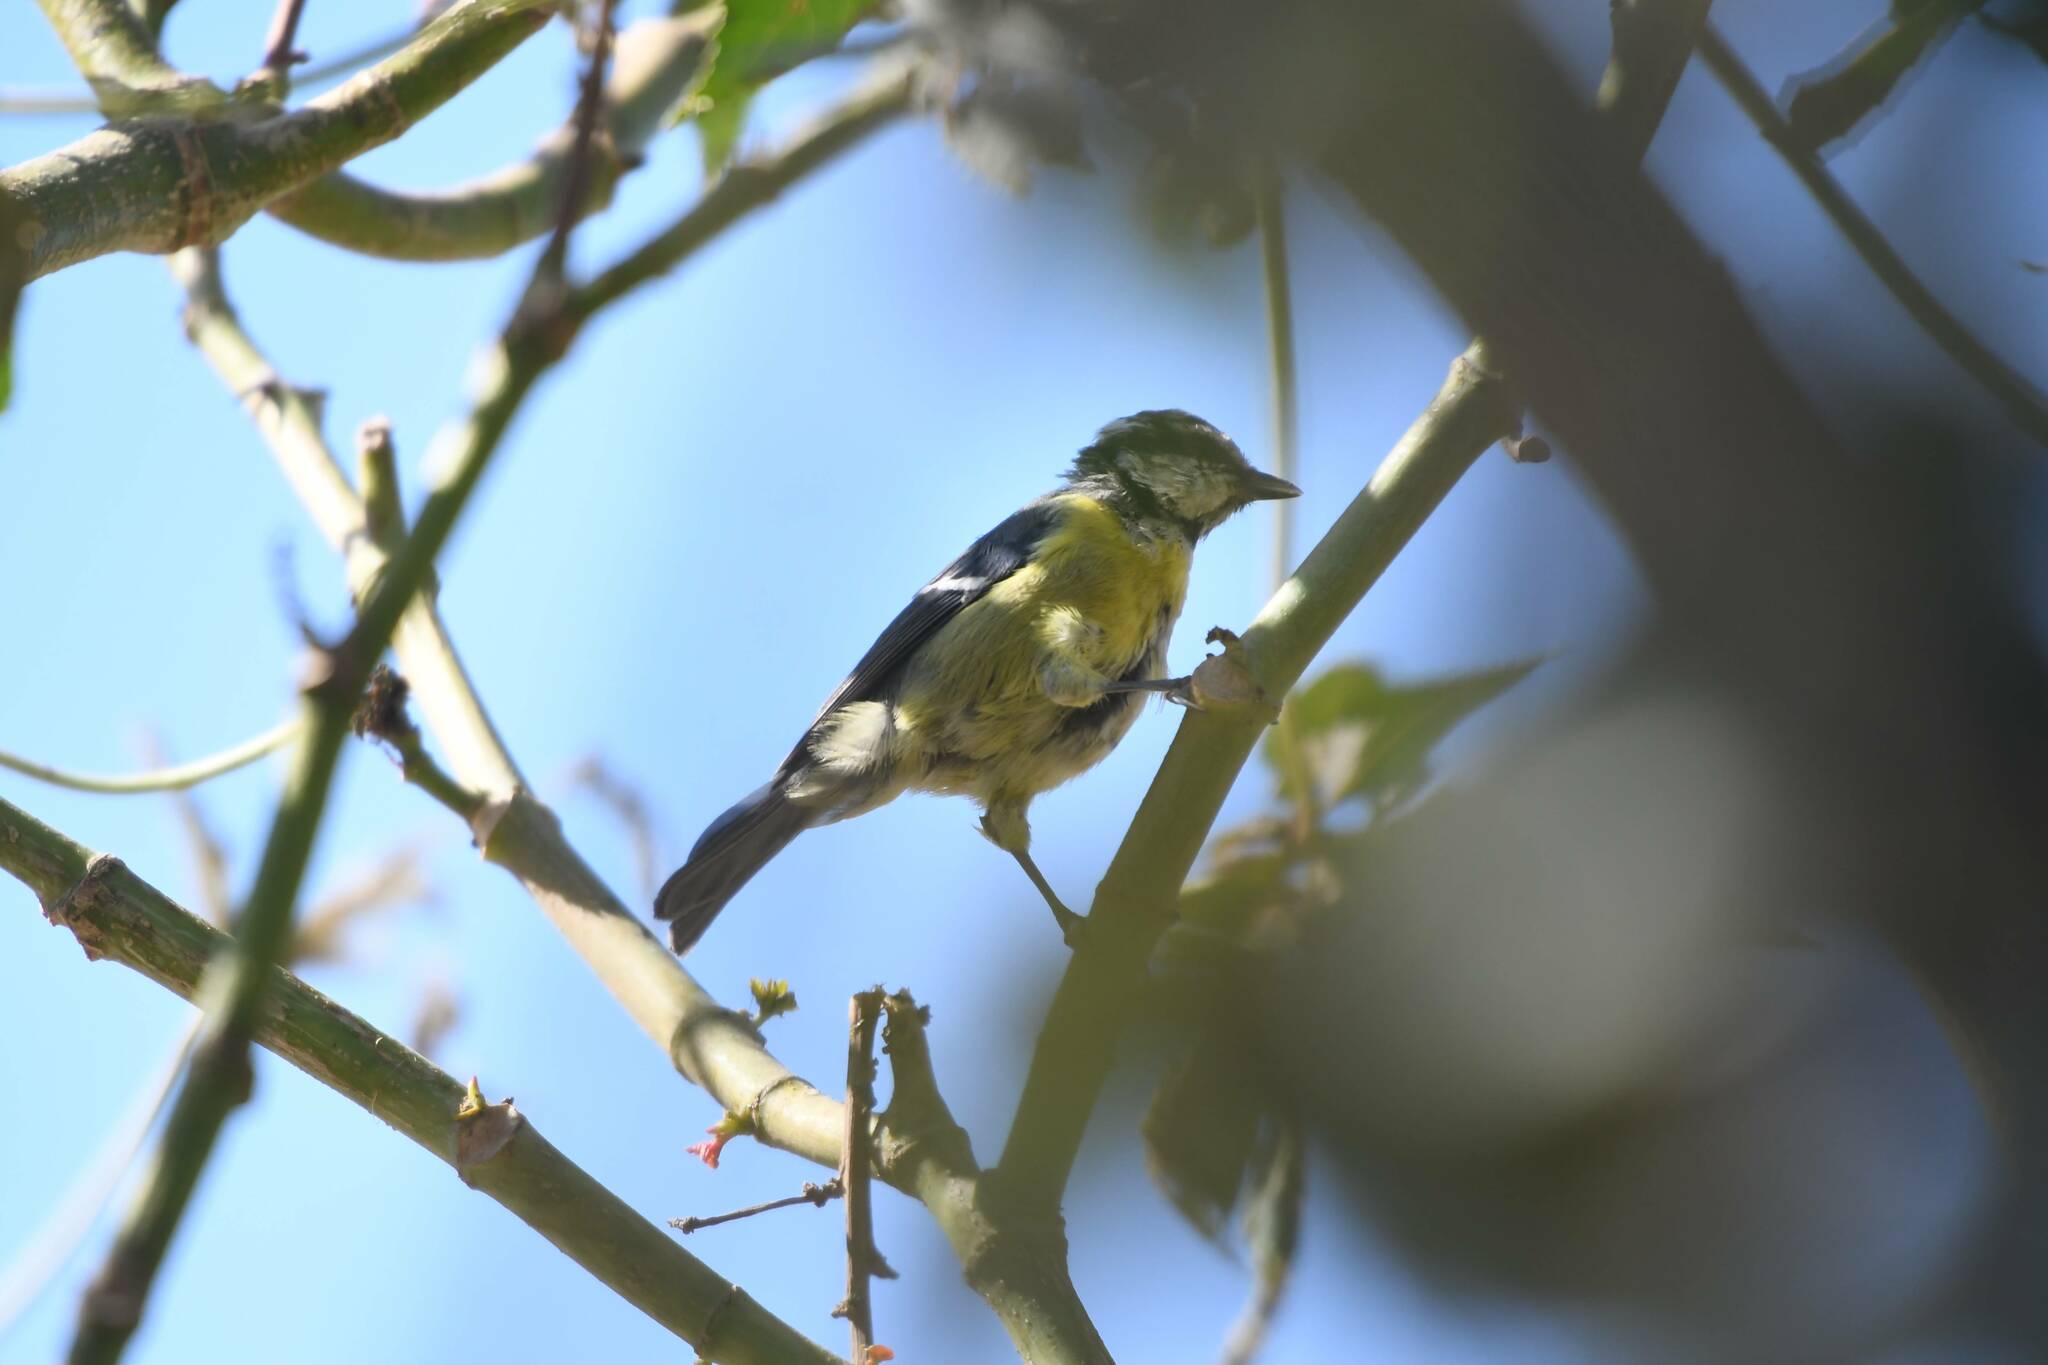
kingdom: Animalia
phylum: Chordata
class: Aves
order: Passeriformes
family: Paridae
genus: Cyanistes
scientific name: Cyanistes teneriffae
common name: African blue tit
